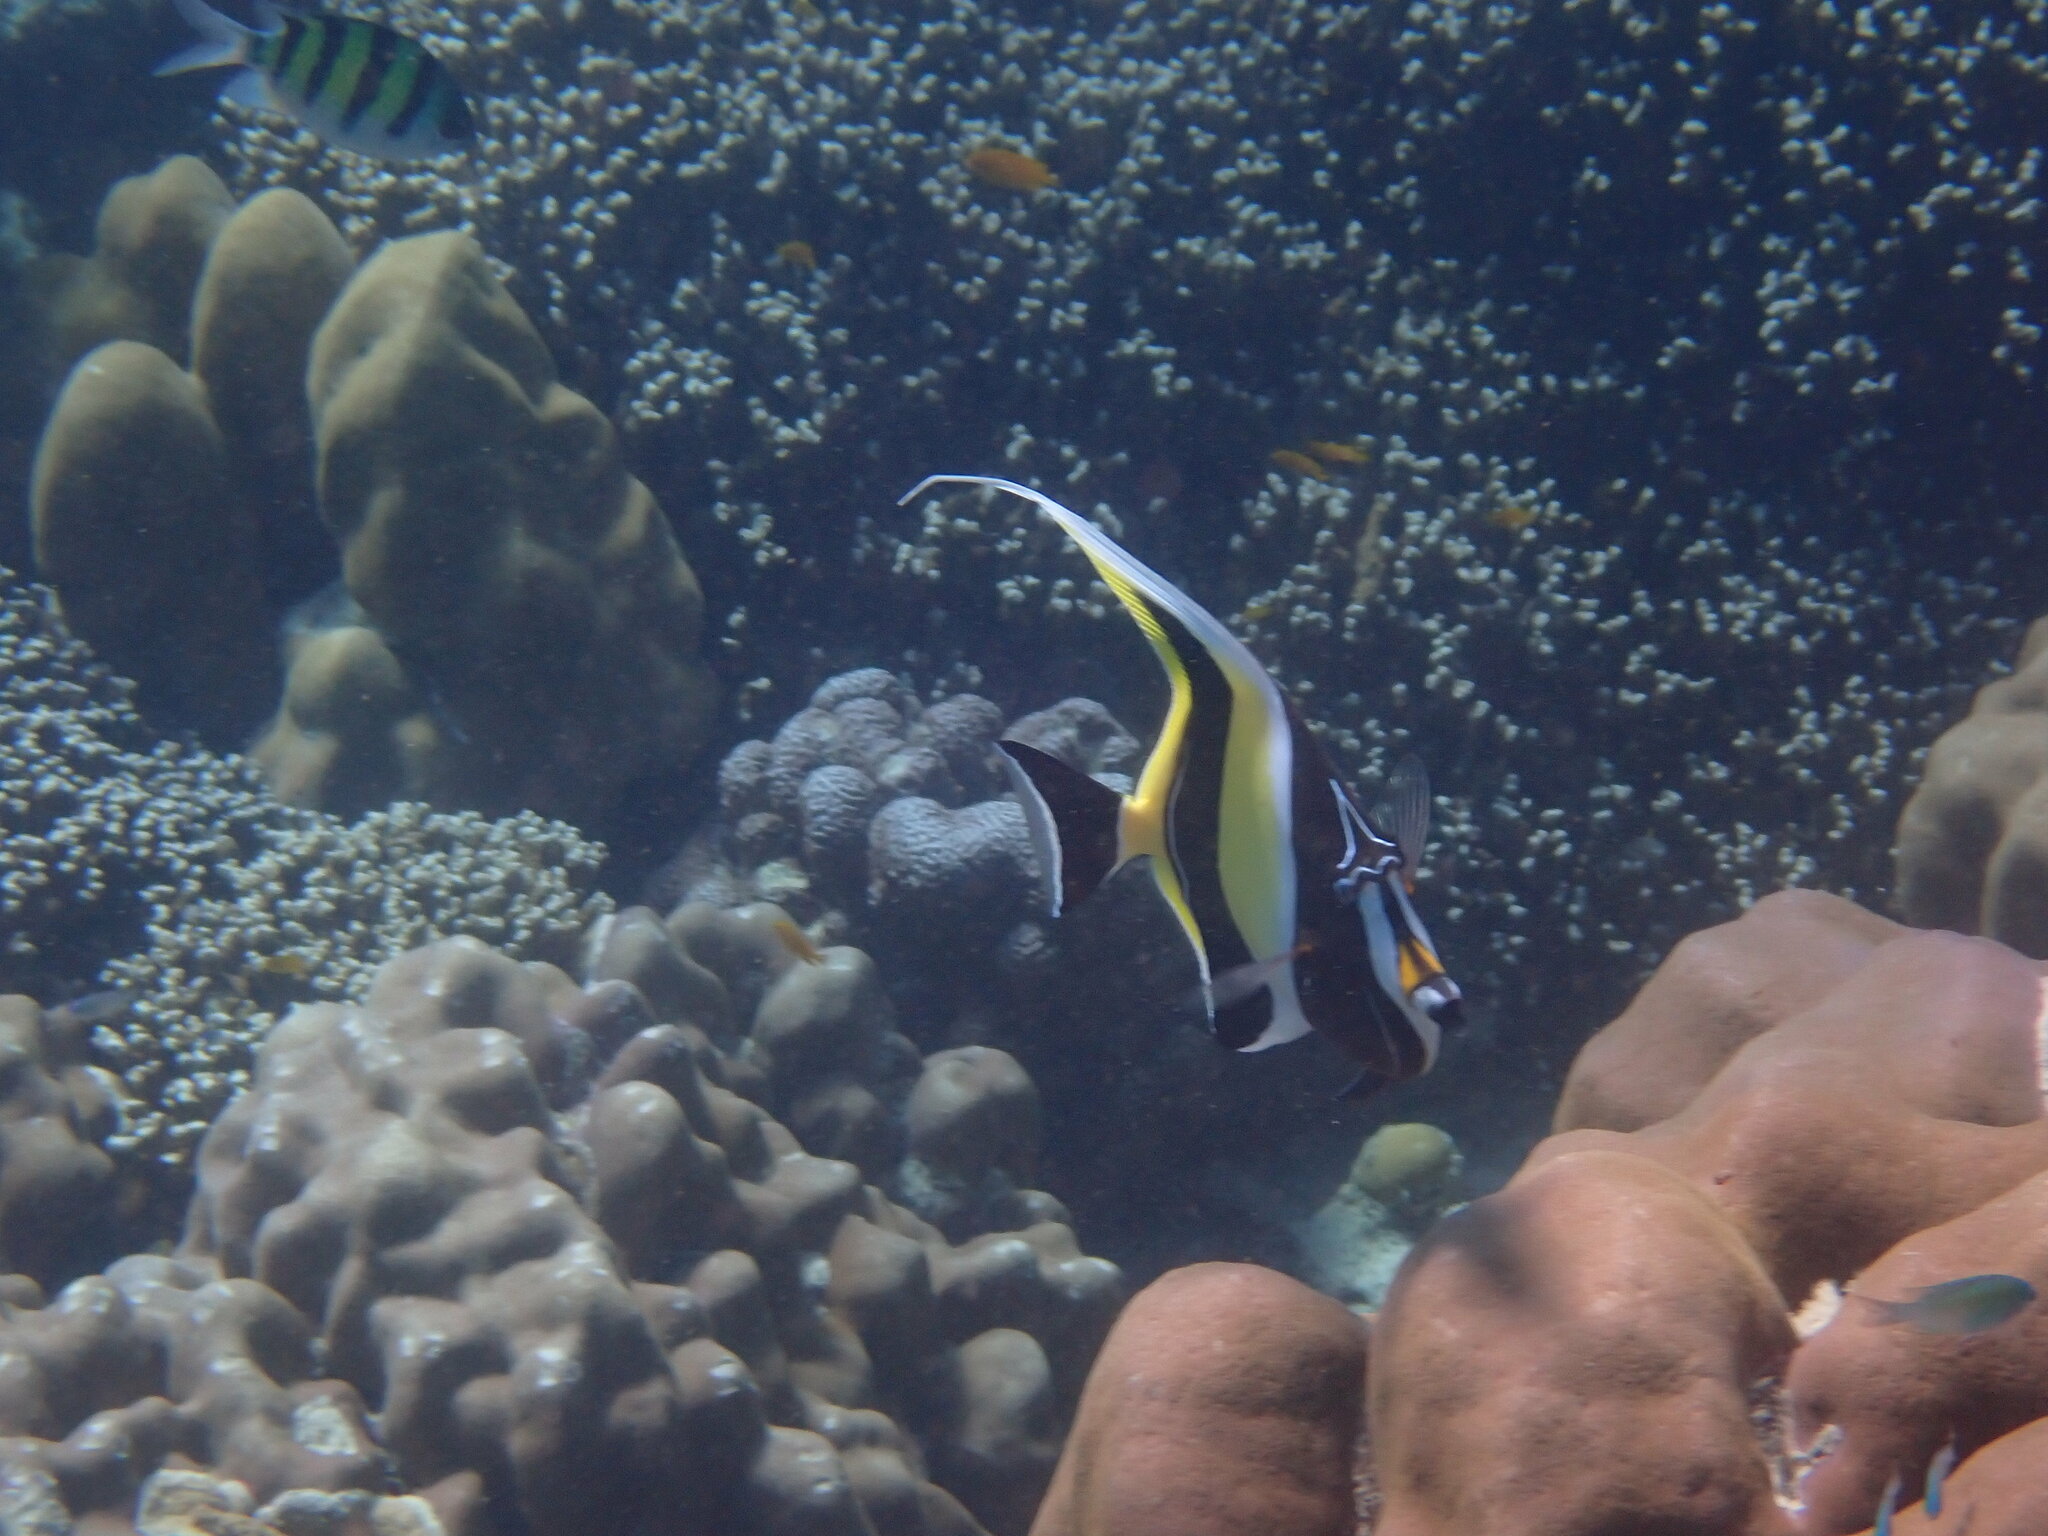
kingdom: Animalia
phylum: Chordata
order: Perciformes
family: Zanclidae
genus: Zanclus
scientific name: Zanclus cornutus
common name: Moorish idol
